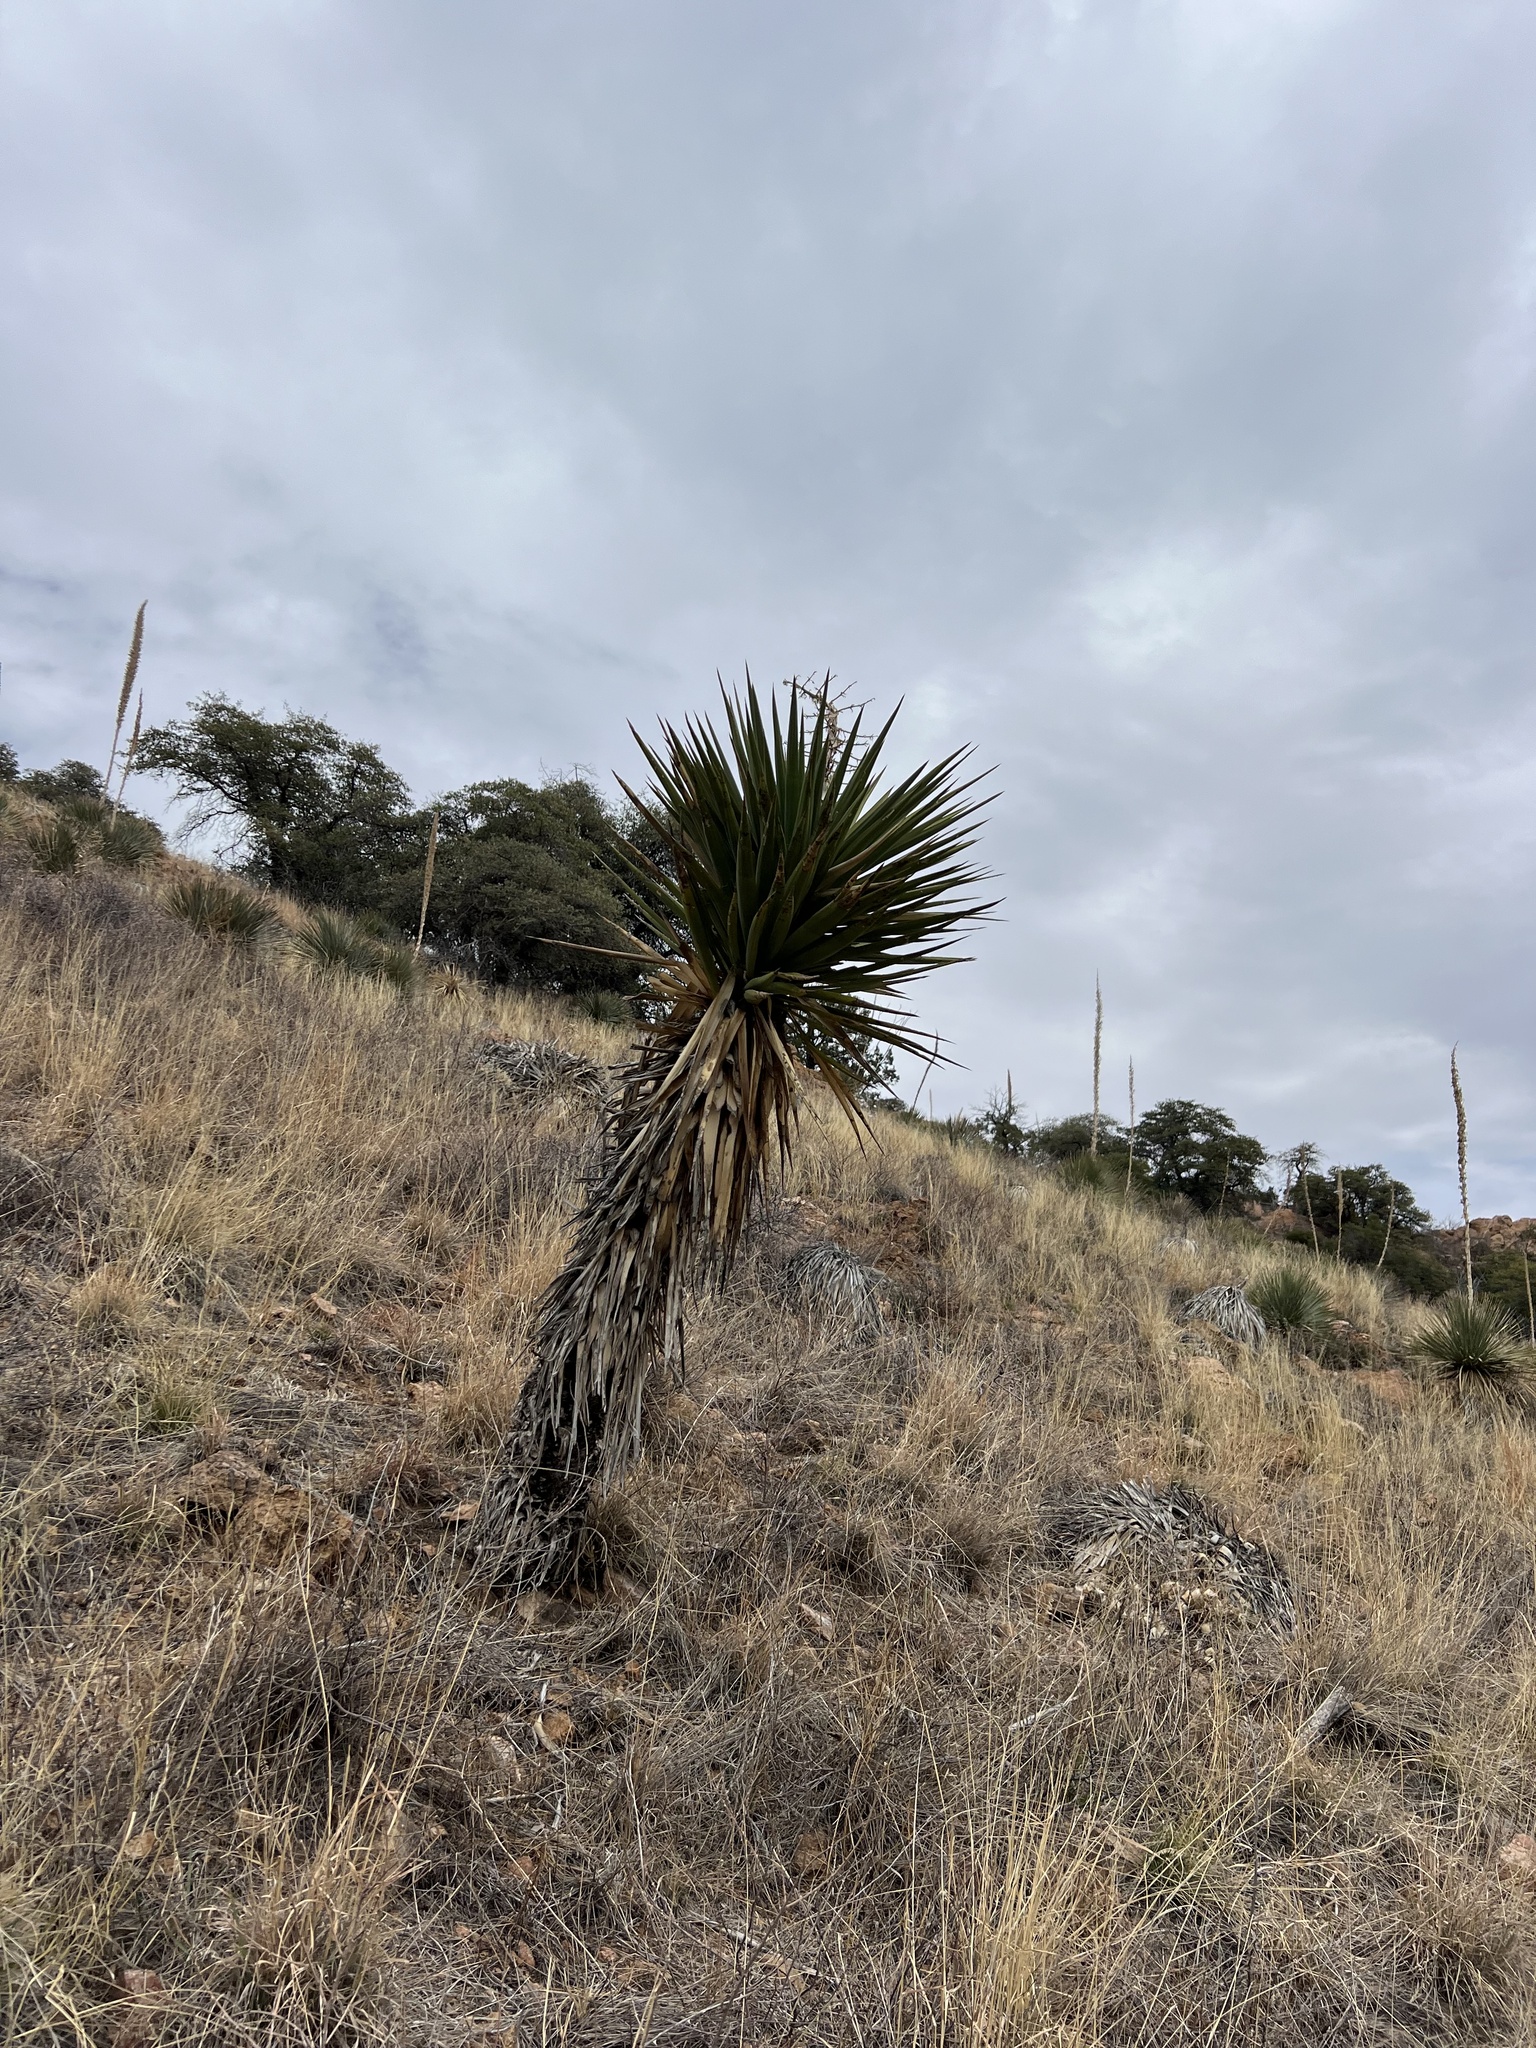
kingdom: Plantae
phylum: Tracheophyta
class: Liliopsida
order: Asparagales
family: Asparagaceae
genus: Yucca
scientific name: Yucca madrensis
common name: Hoary yucca
